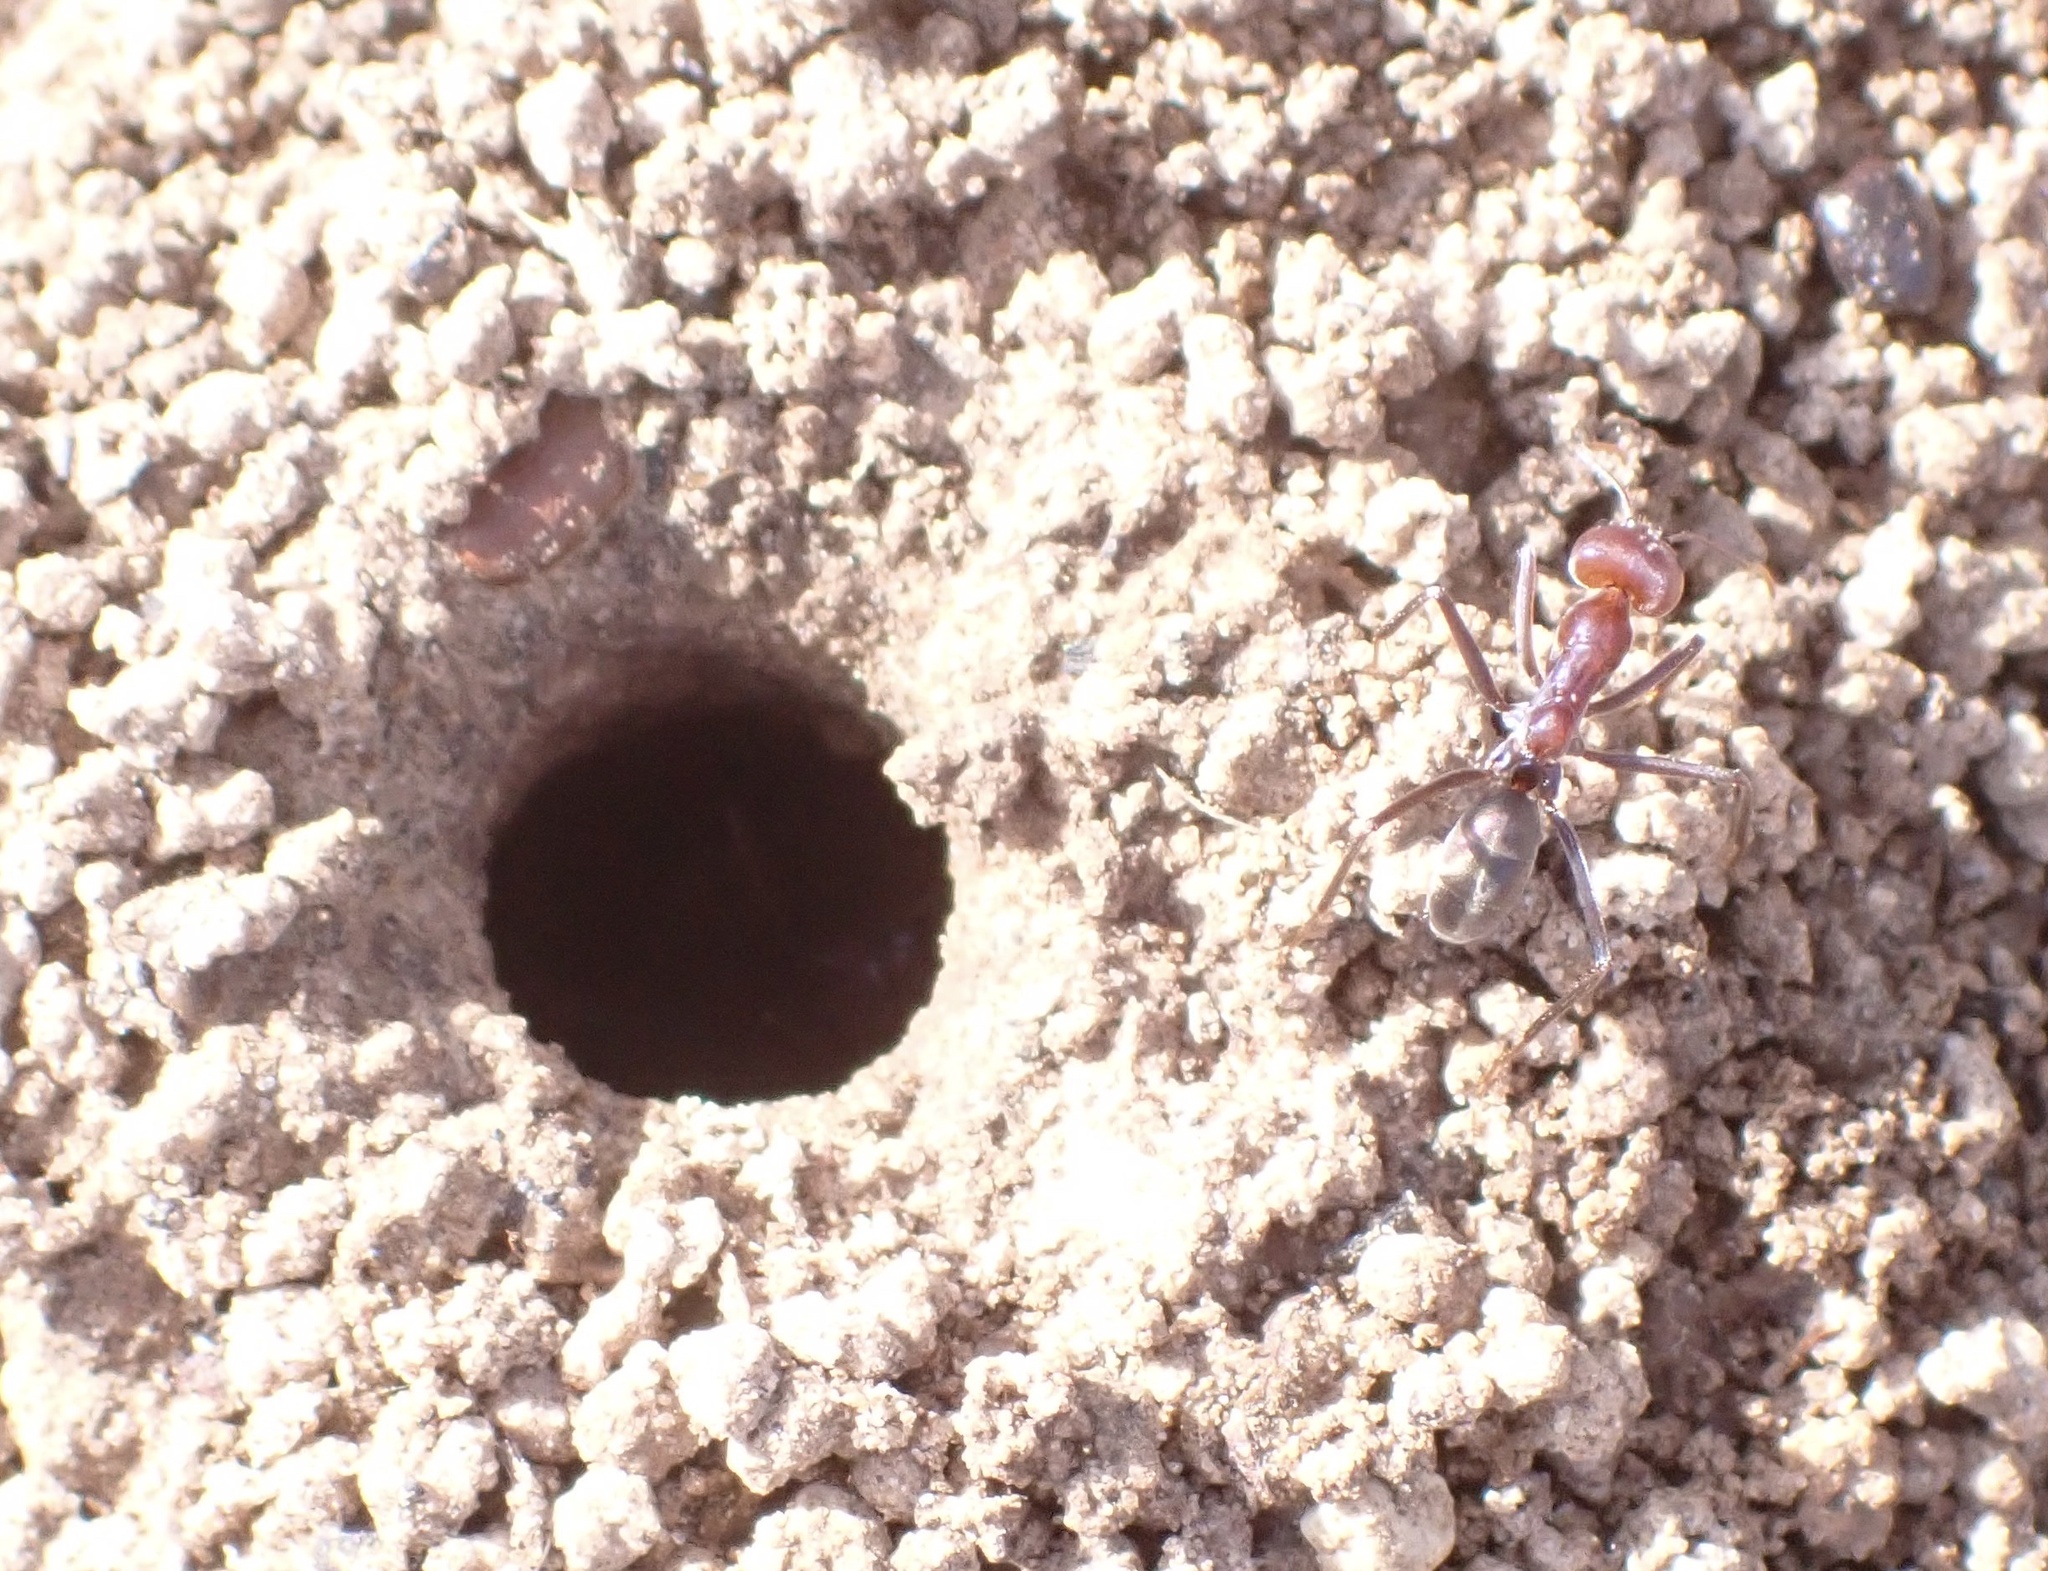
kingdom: Animalia
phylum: Arthropoda
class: Insecta
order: Hymenoptera
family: Formicidae
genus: Iridomyrmex
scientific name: Iridomyrmex purpureus
